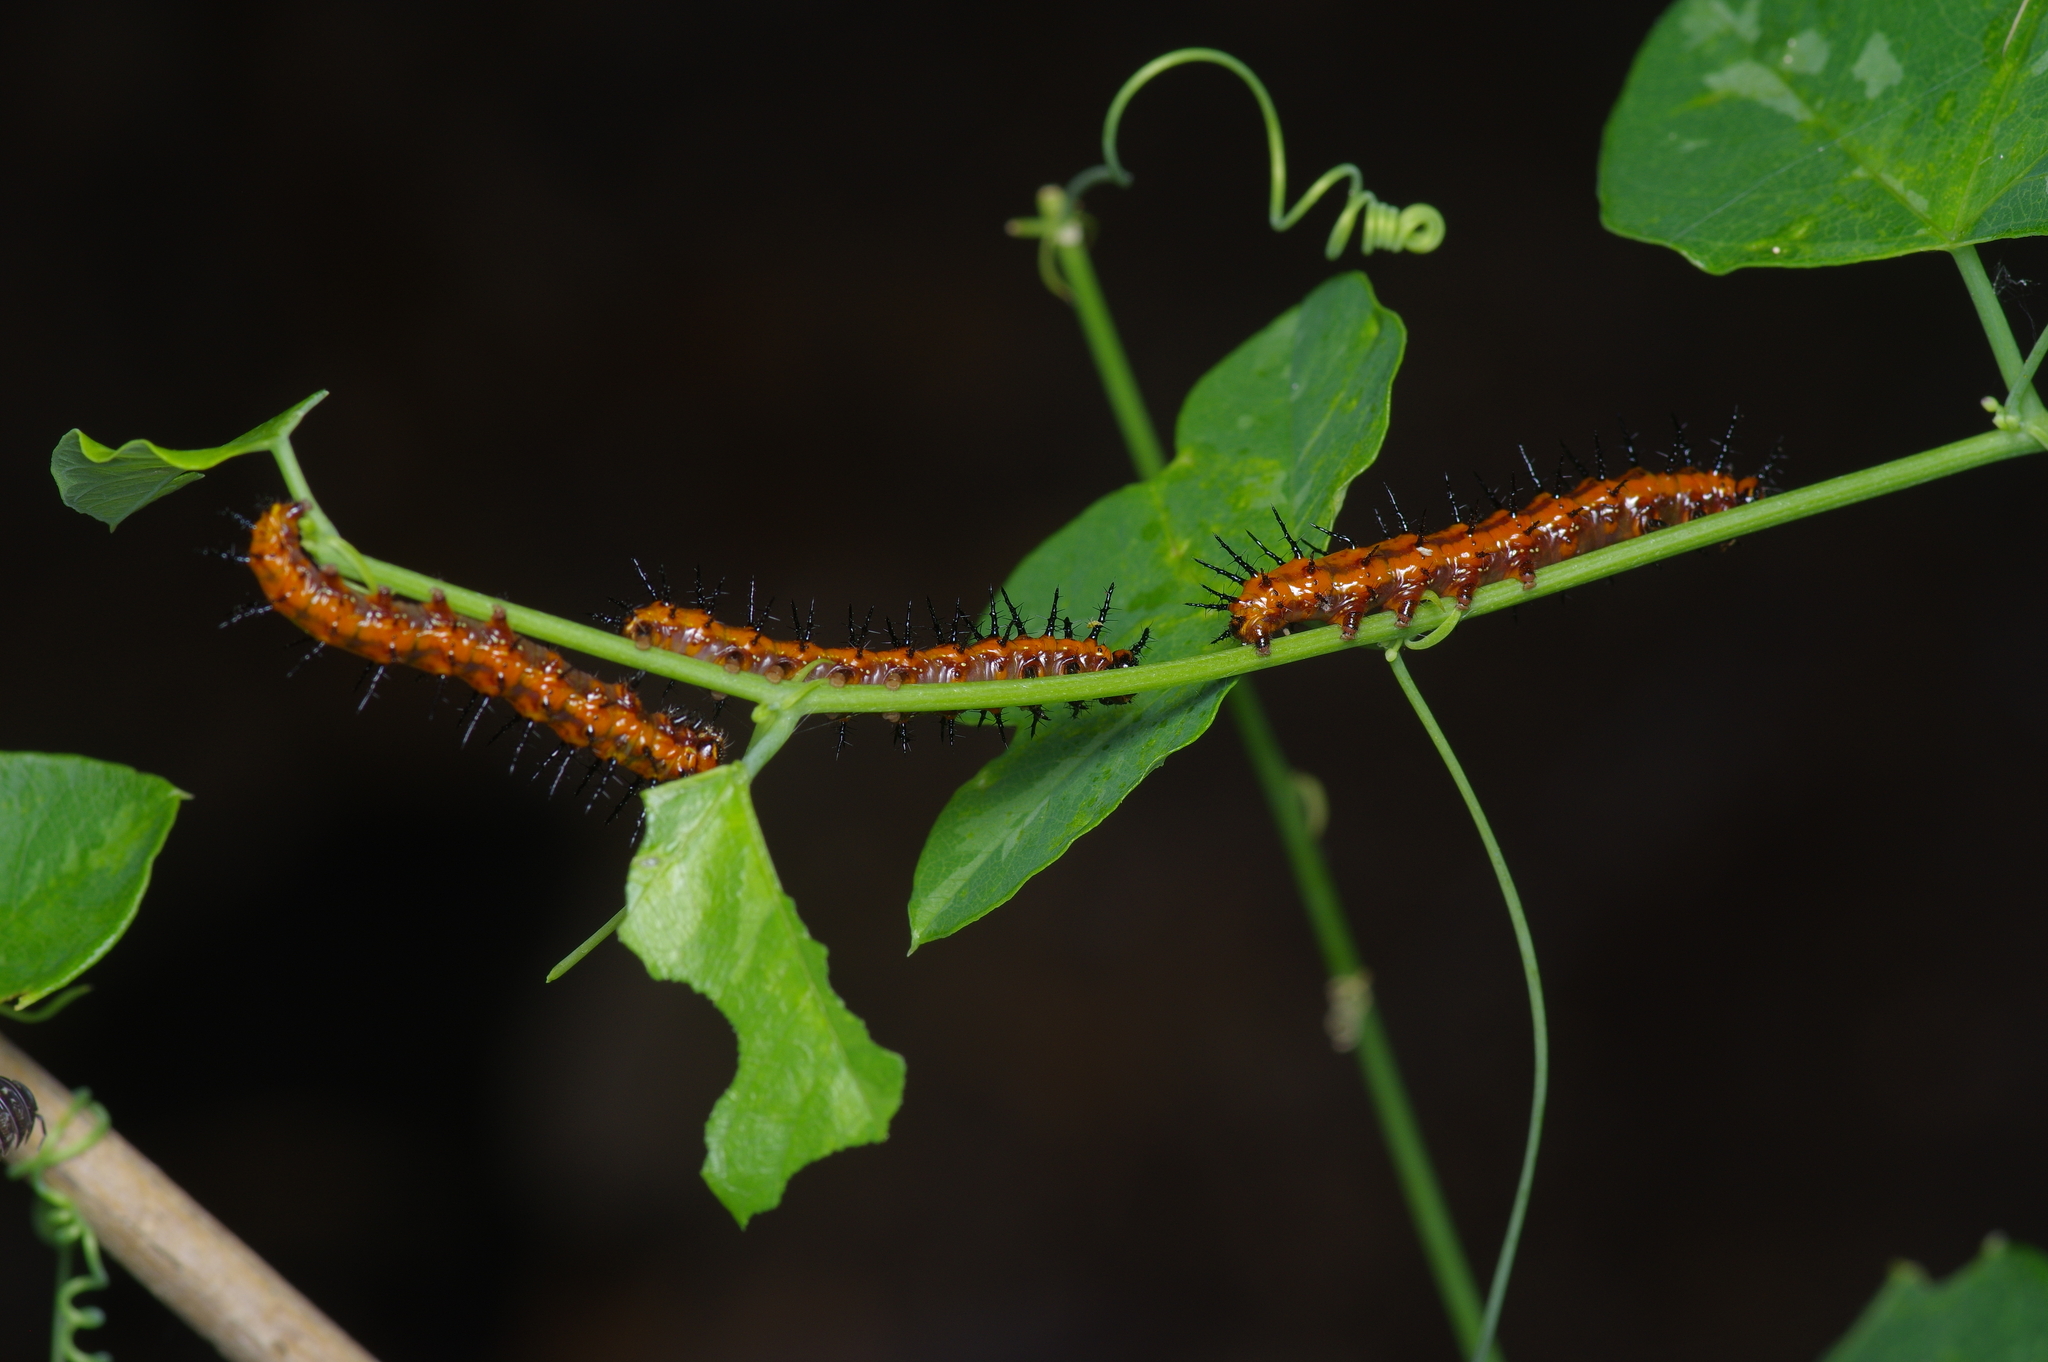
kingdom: Animalia
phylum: Arthropoda
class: Insecta
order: Lepidoptera
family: Nymphalidae
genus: Dione
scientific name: Dione vanillae
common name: Gulf fritillary
